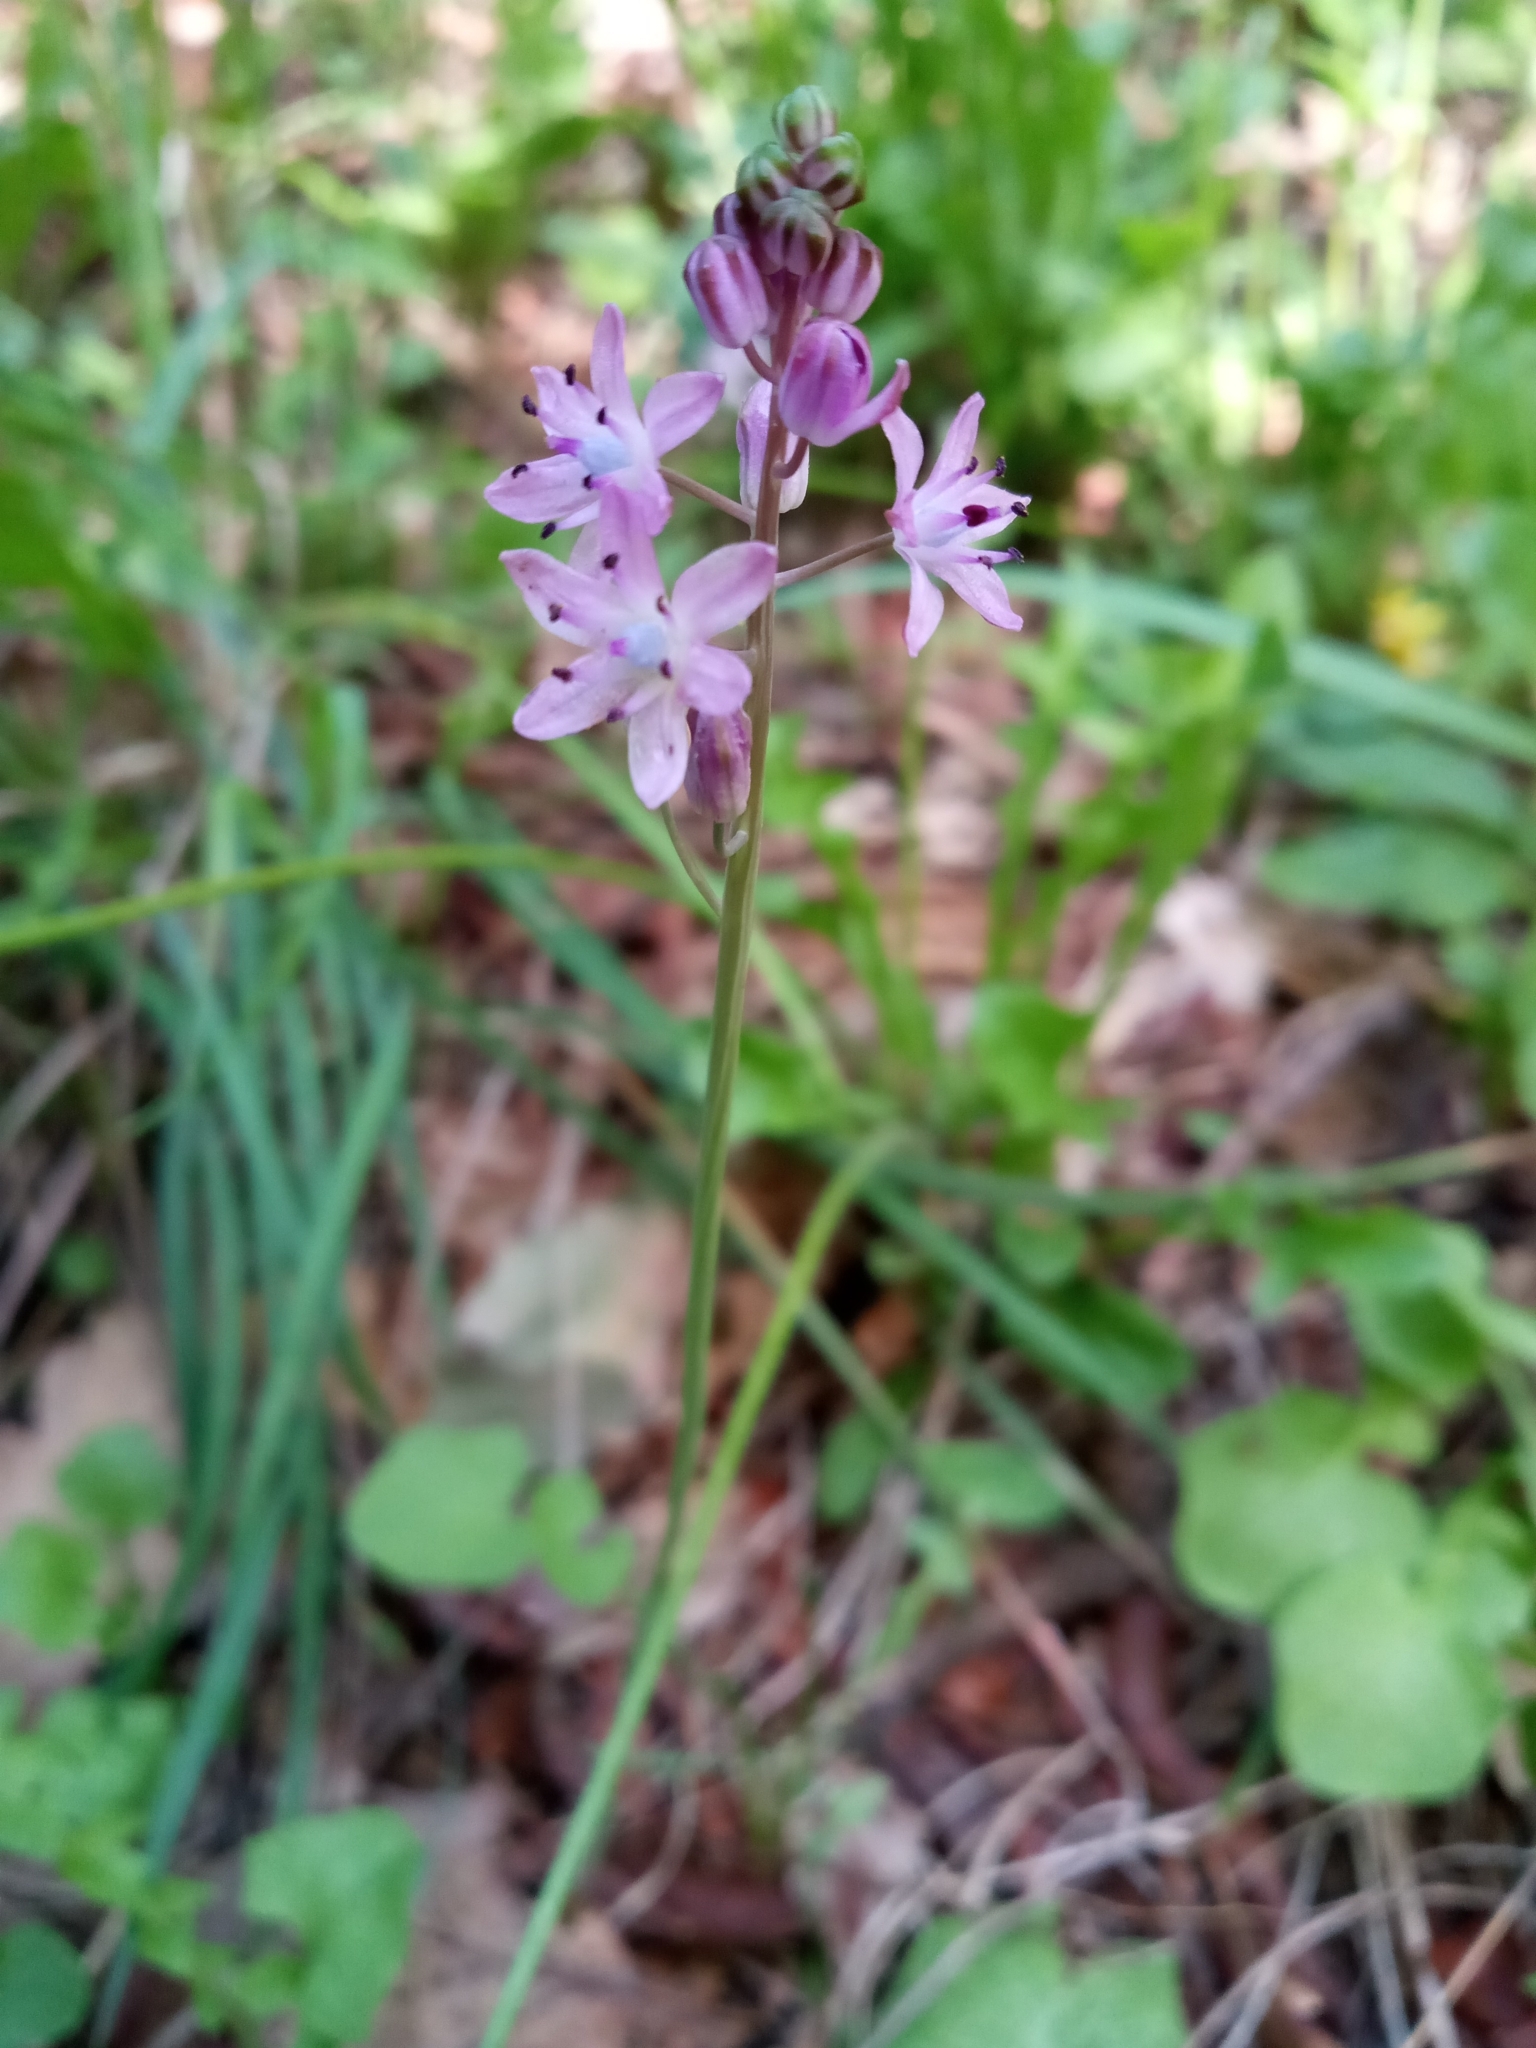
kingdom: Plantae
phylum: Tracheophyta
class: Liliopsida
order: Asparagales
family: Asparagaceae
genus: Prospero
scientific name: Prospero autumnale
